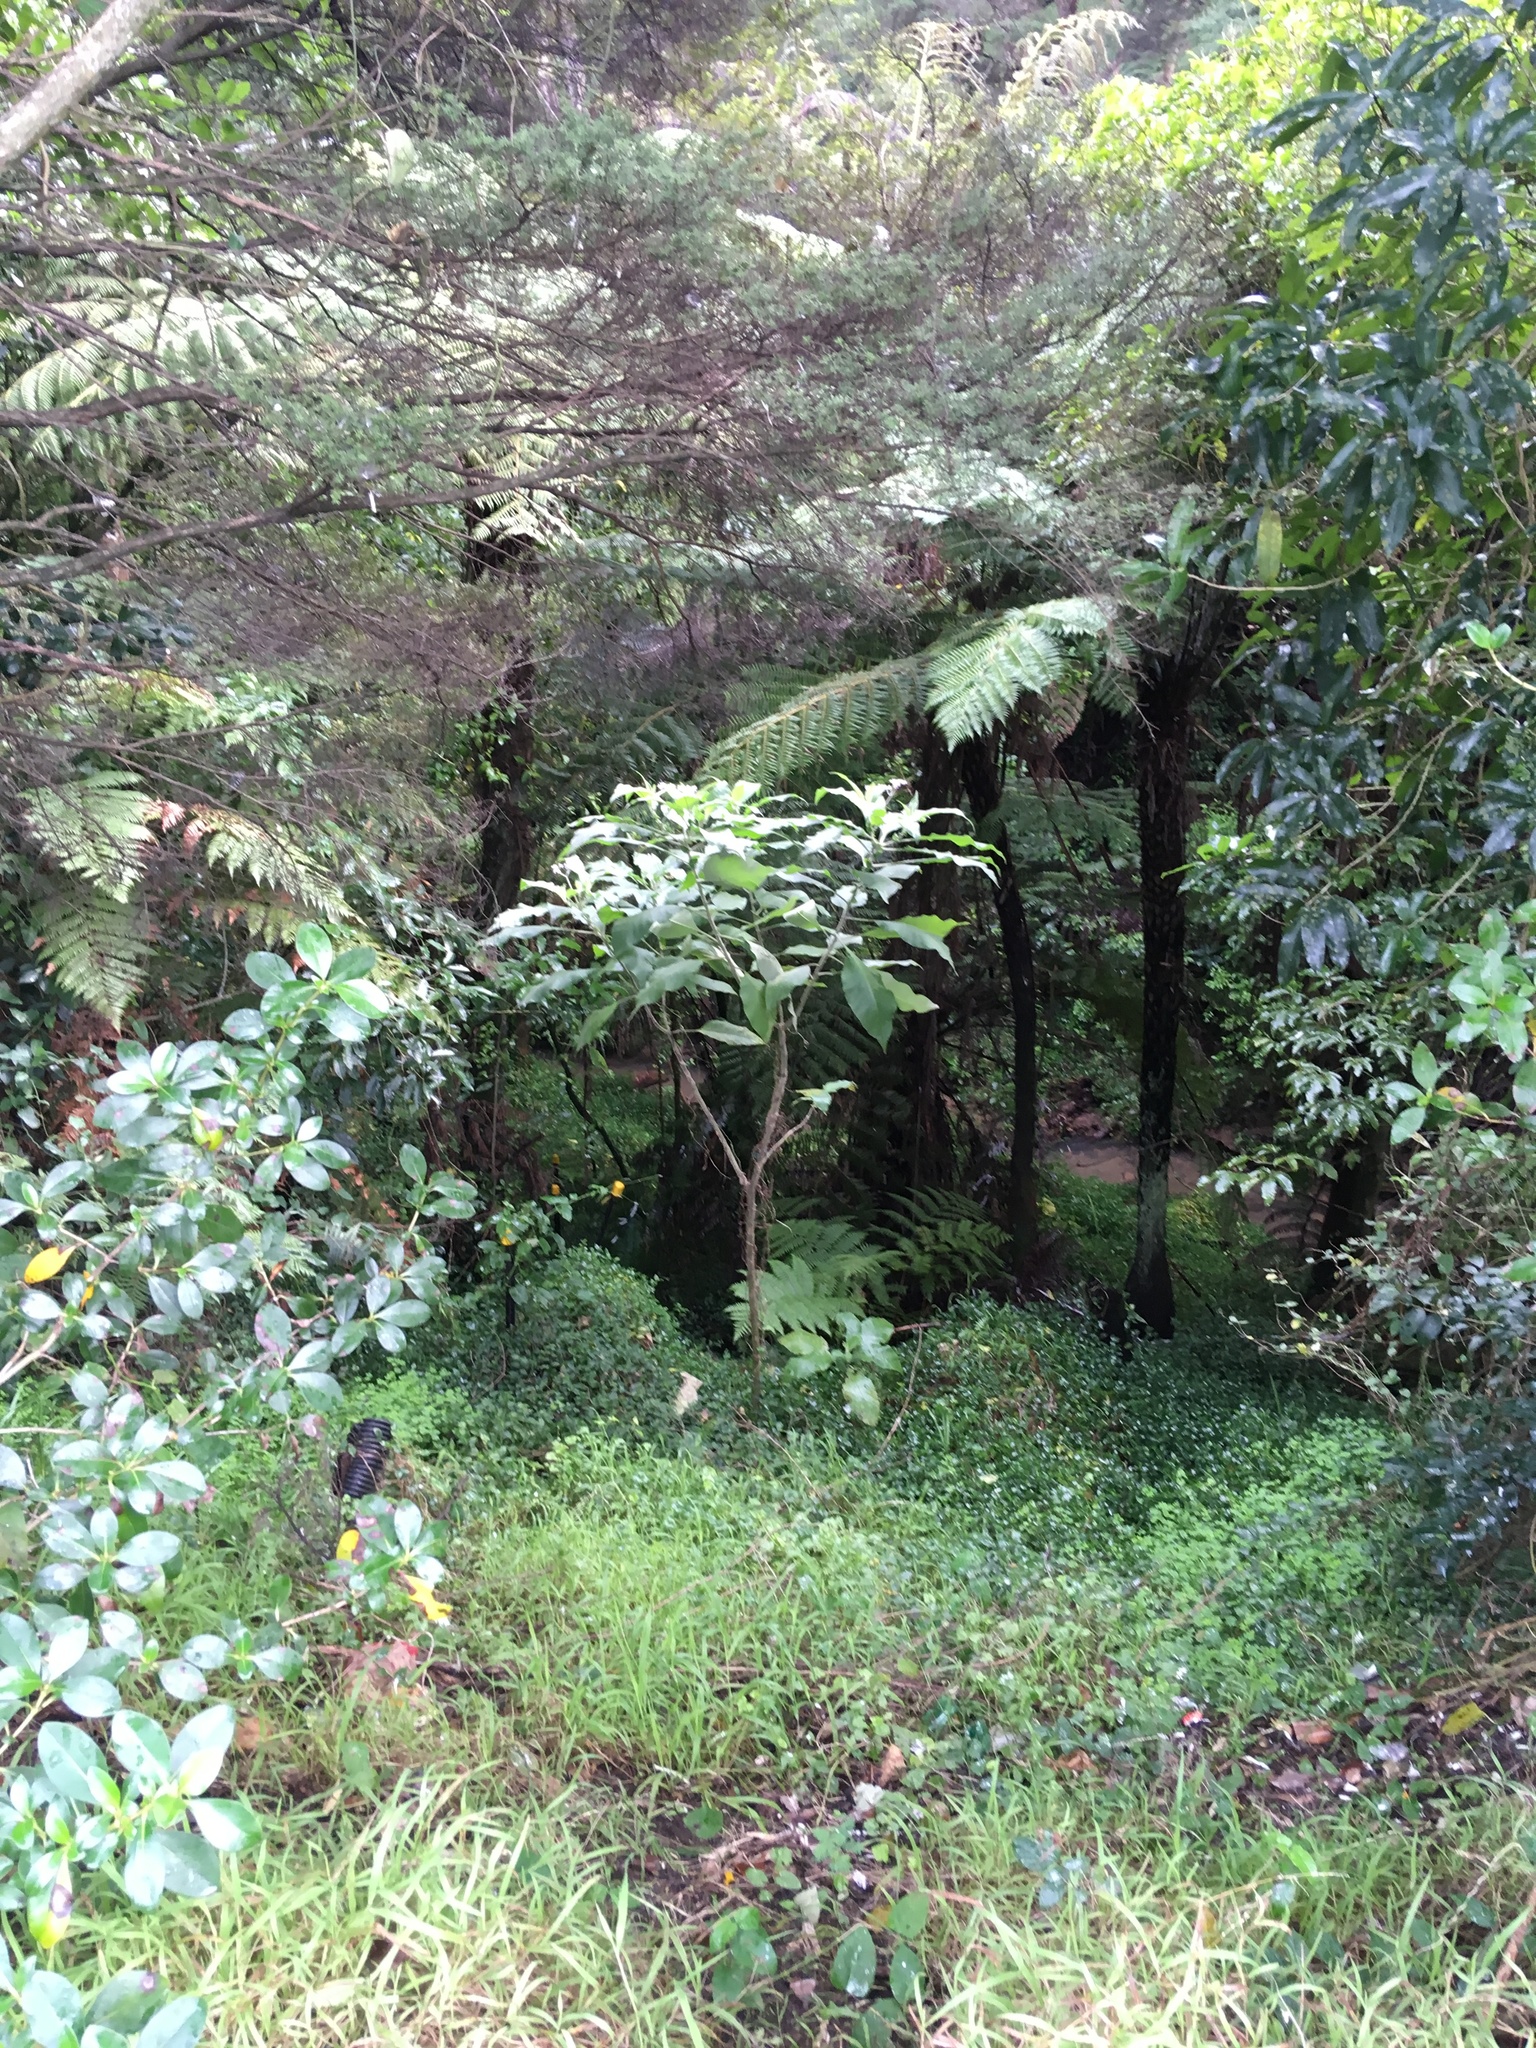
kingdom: Plantae
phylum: Tracheophyta
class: Magnoliopsida
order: Solanales
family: Solanaceae
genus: Solanum
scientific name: Solanum mauritianum
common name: Earleaf nightshade
